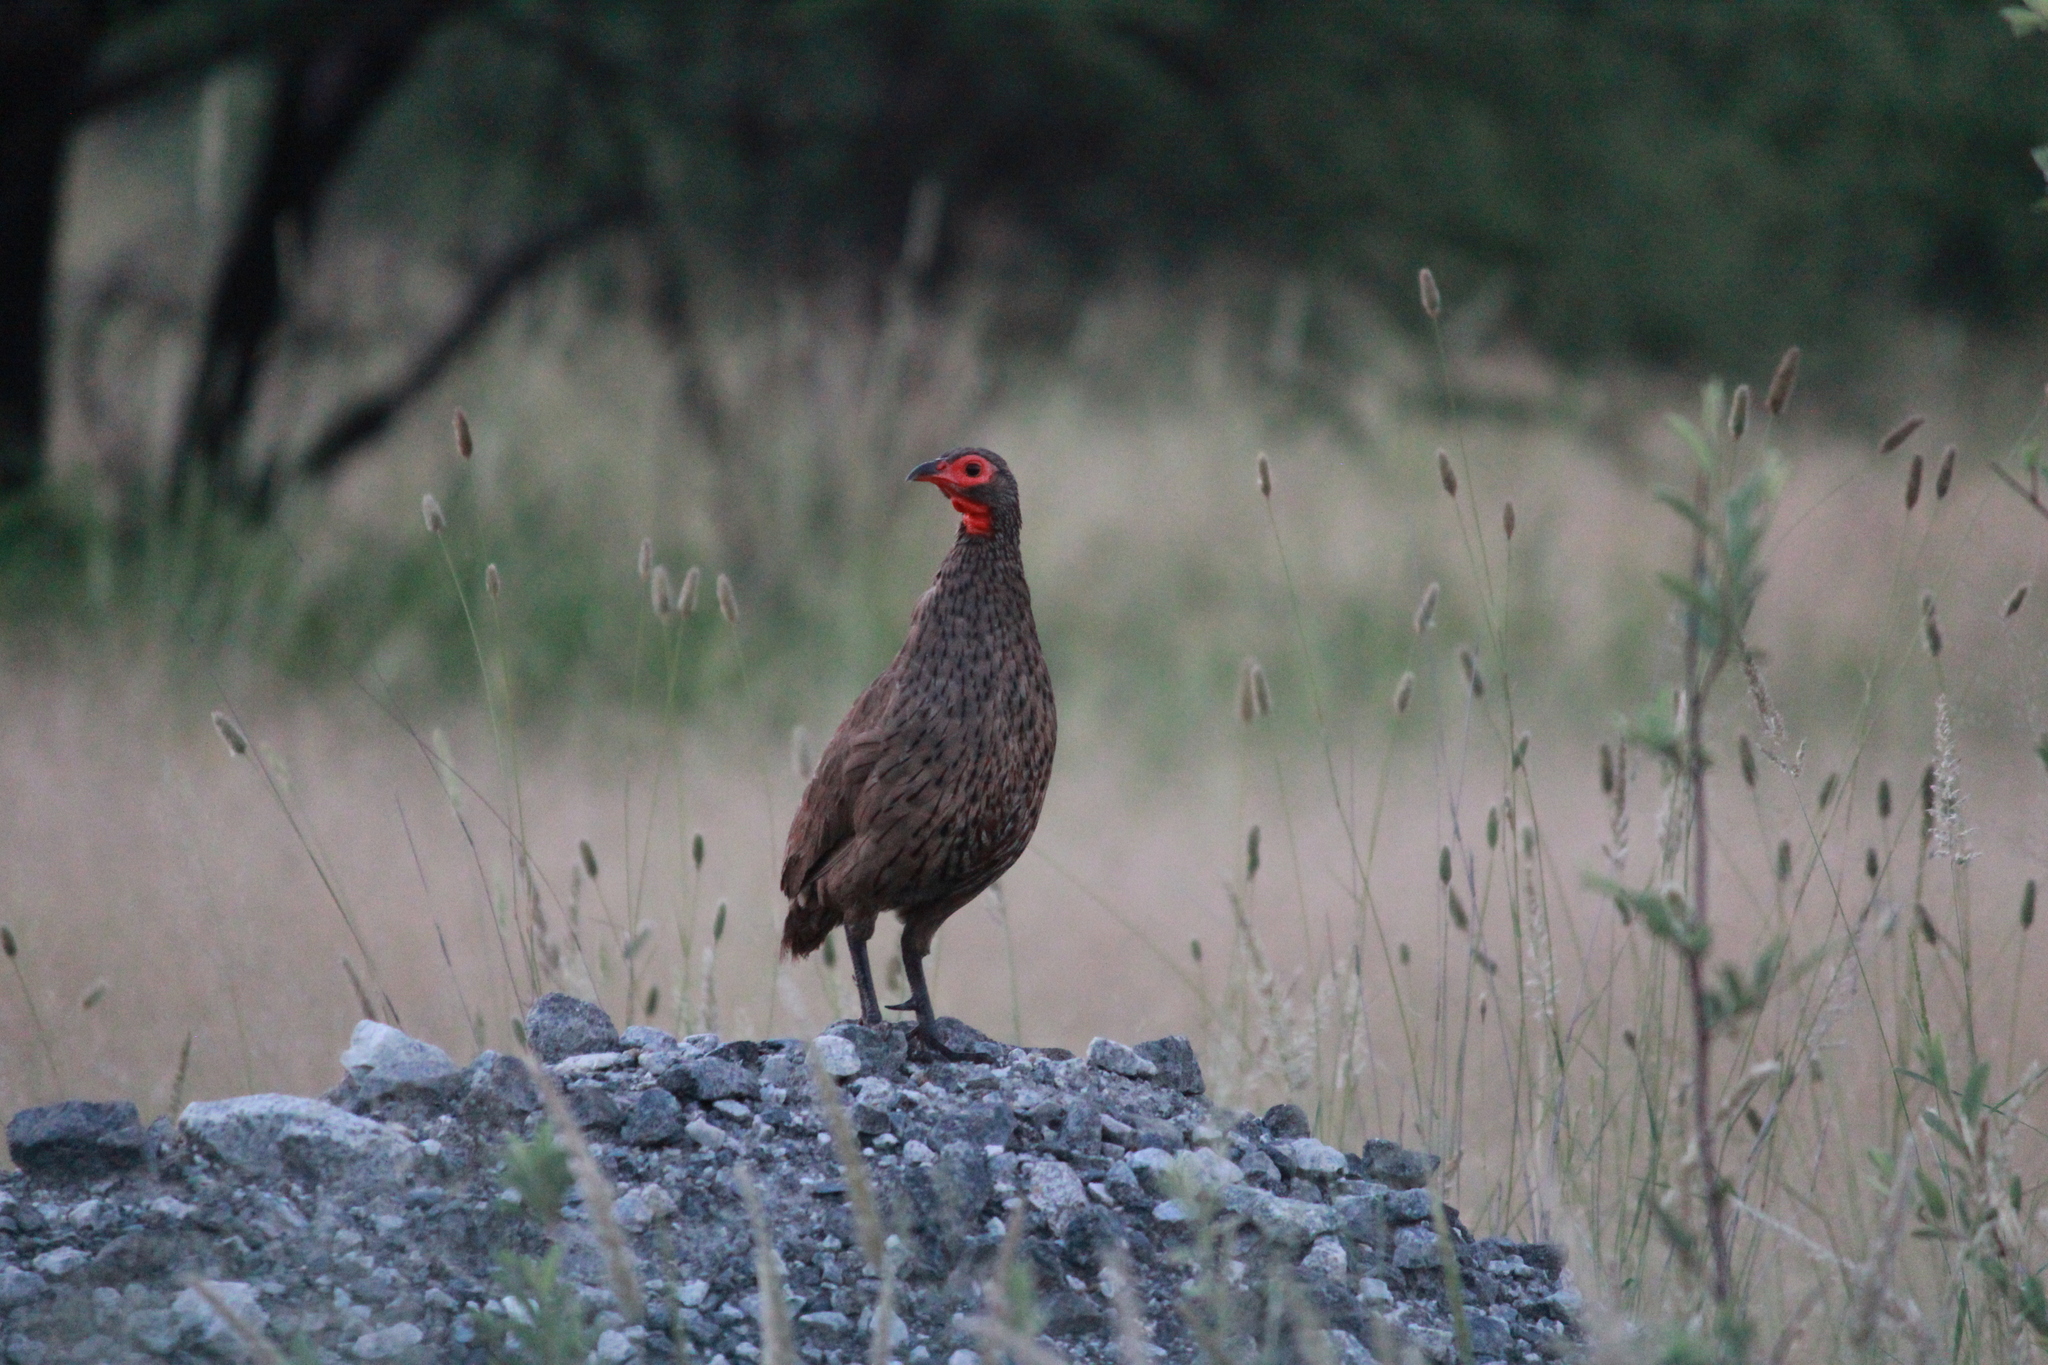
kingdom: Animalia
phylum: Chordata
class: Aves
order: Galliformes
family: Phasianidae
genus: Pternistis
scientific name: Pternistis swainsonii
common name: Swainson's spurfowl
